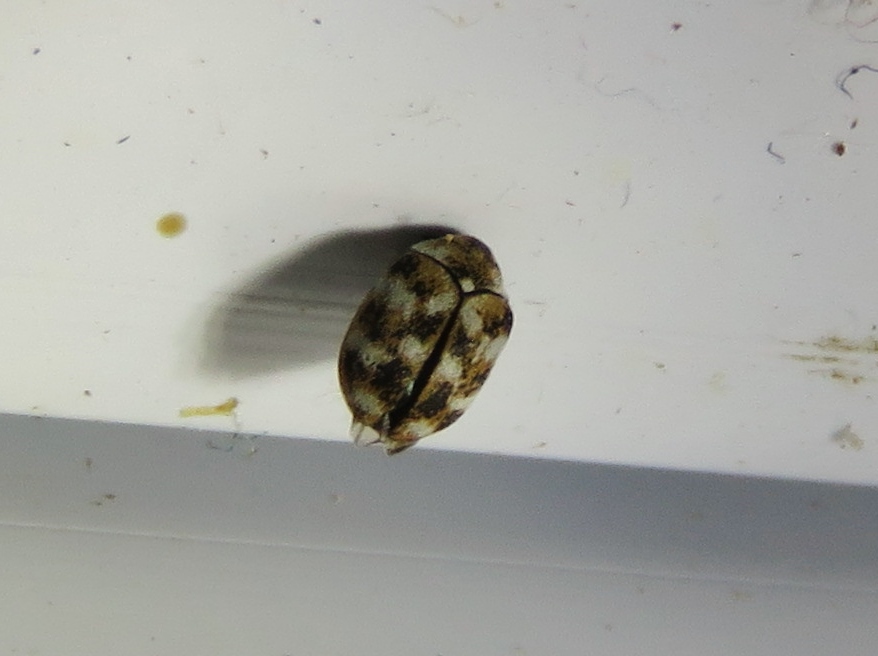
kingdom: Animalia
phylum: Arthropoda
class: Insecta
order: Coleoptera
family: Dermestidae
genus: Anthrenus
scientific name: Anthrenus verbasci
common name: Varied carpet beetle
